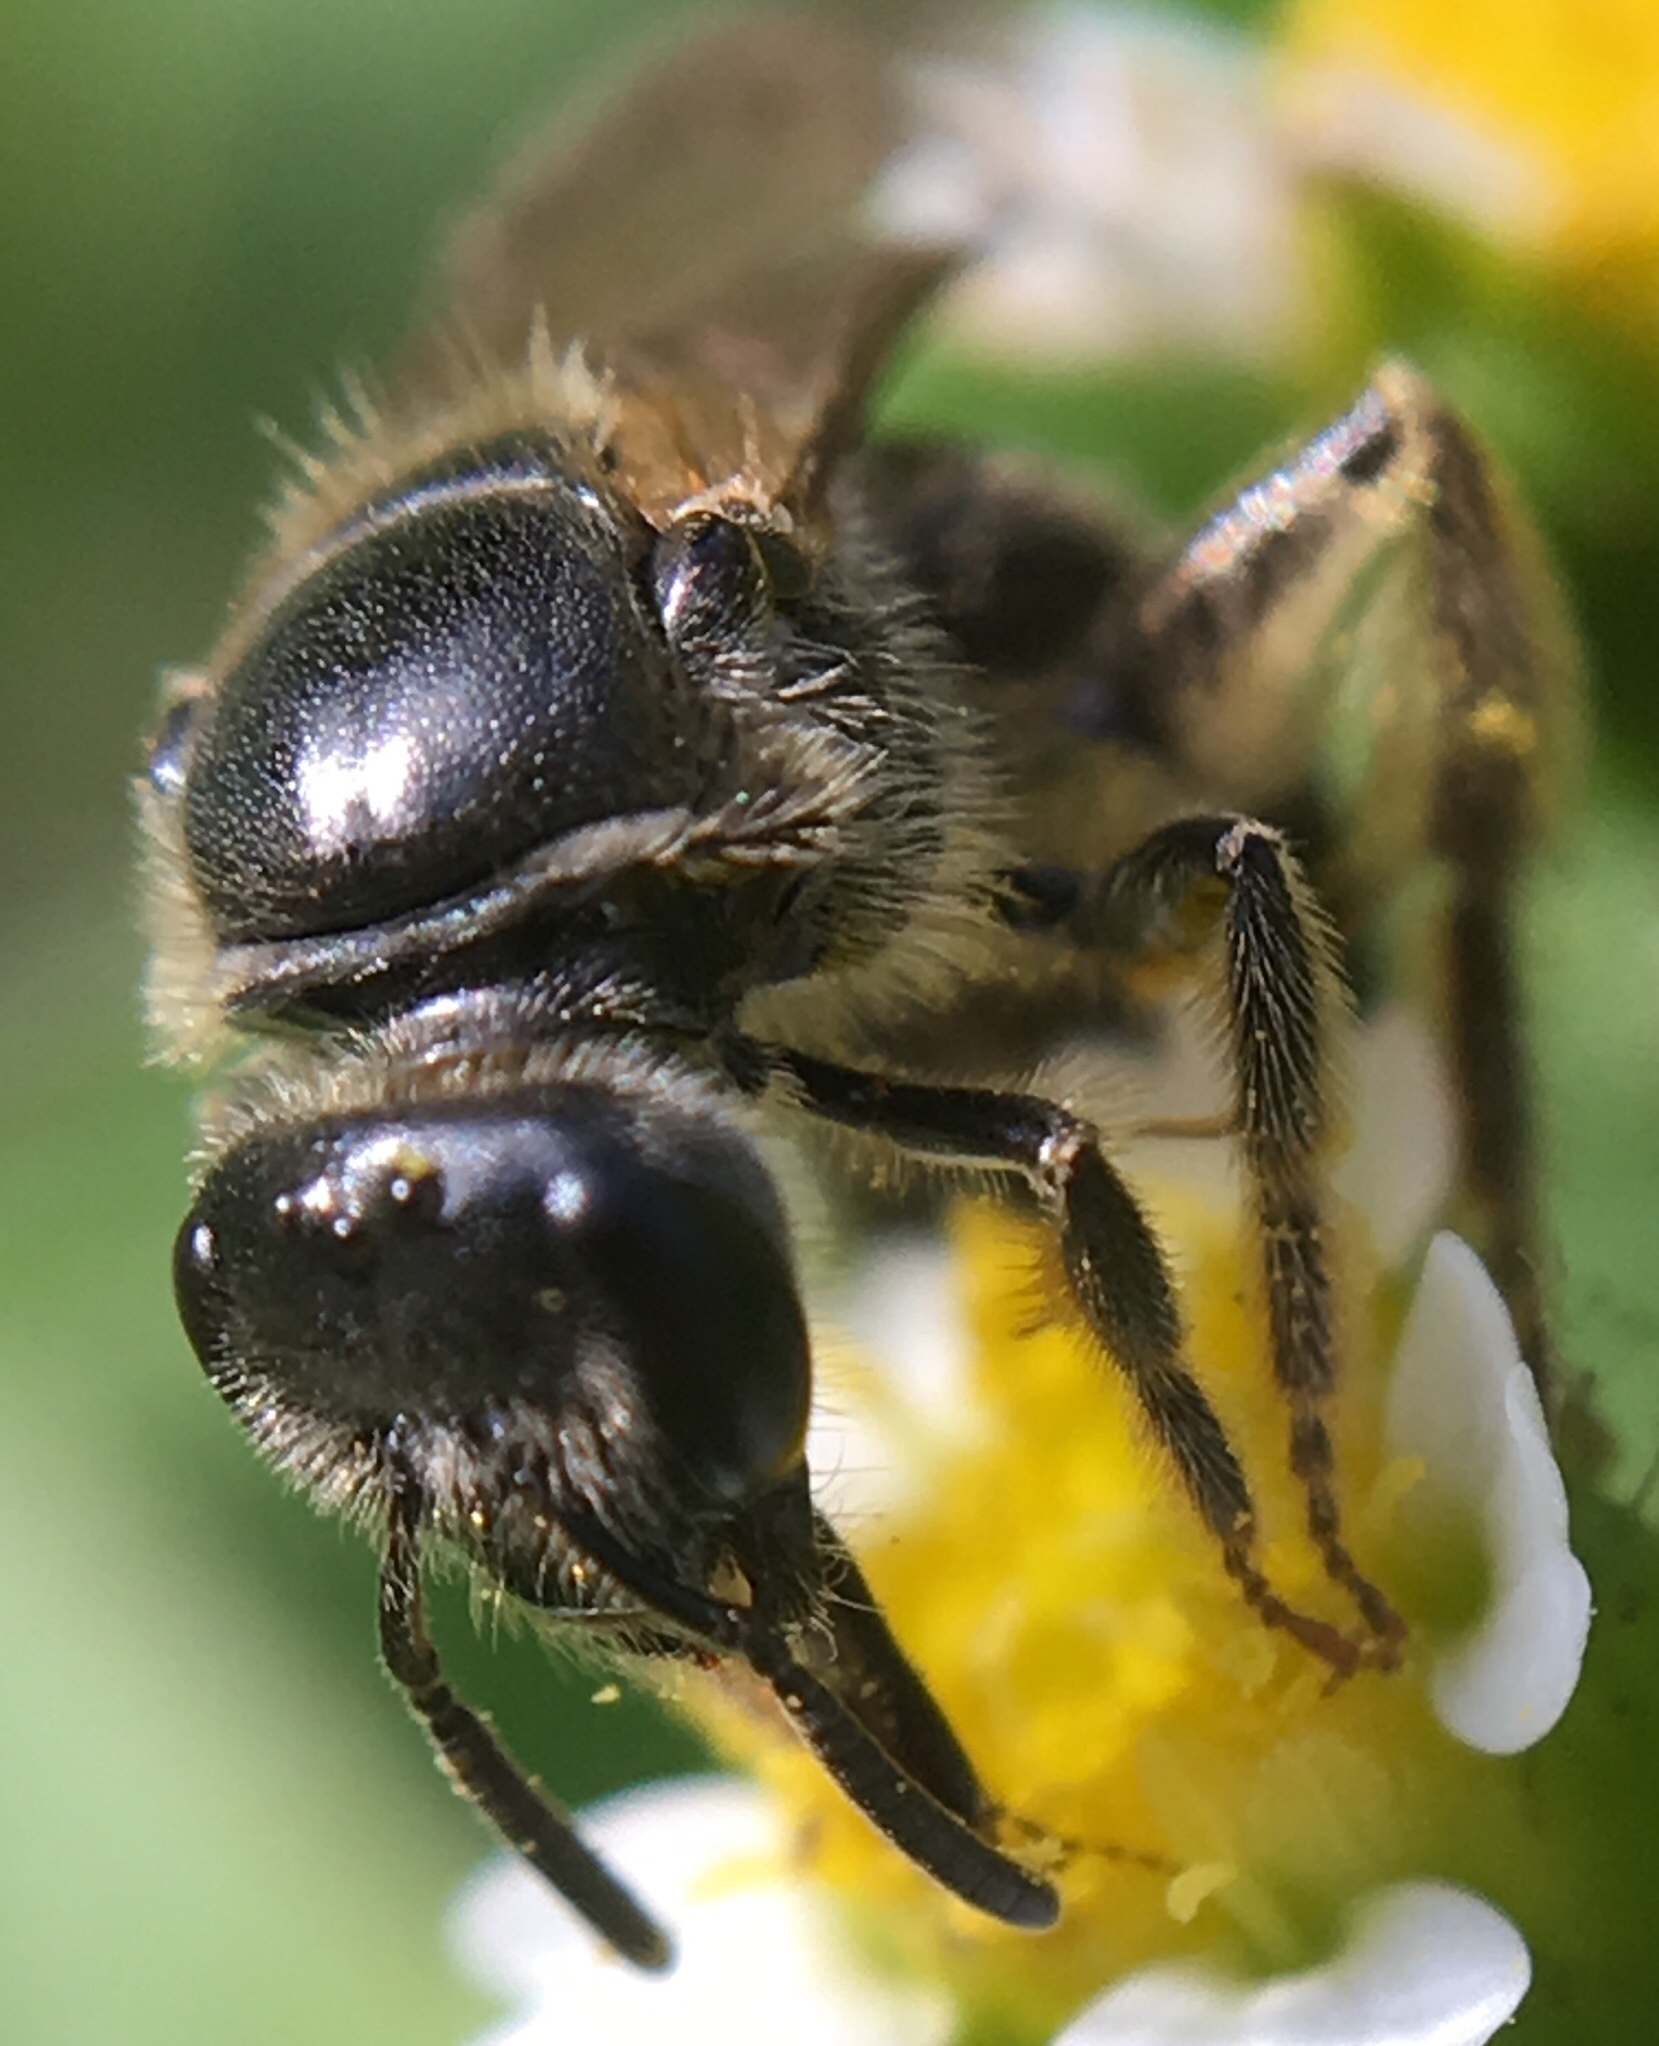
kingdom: Animalia
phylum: Arthropoda
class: Insecta
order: Hymenoptera
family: Halictidae
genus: Lasioglossum
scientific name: Lasioglossum fuscipenne
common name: Brown-winged sweat bee
